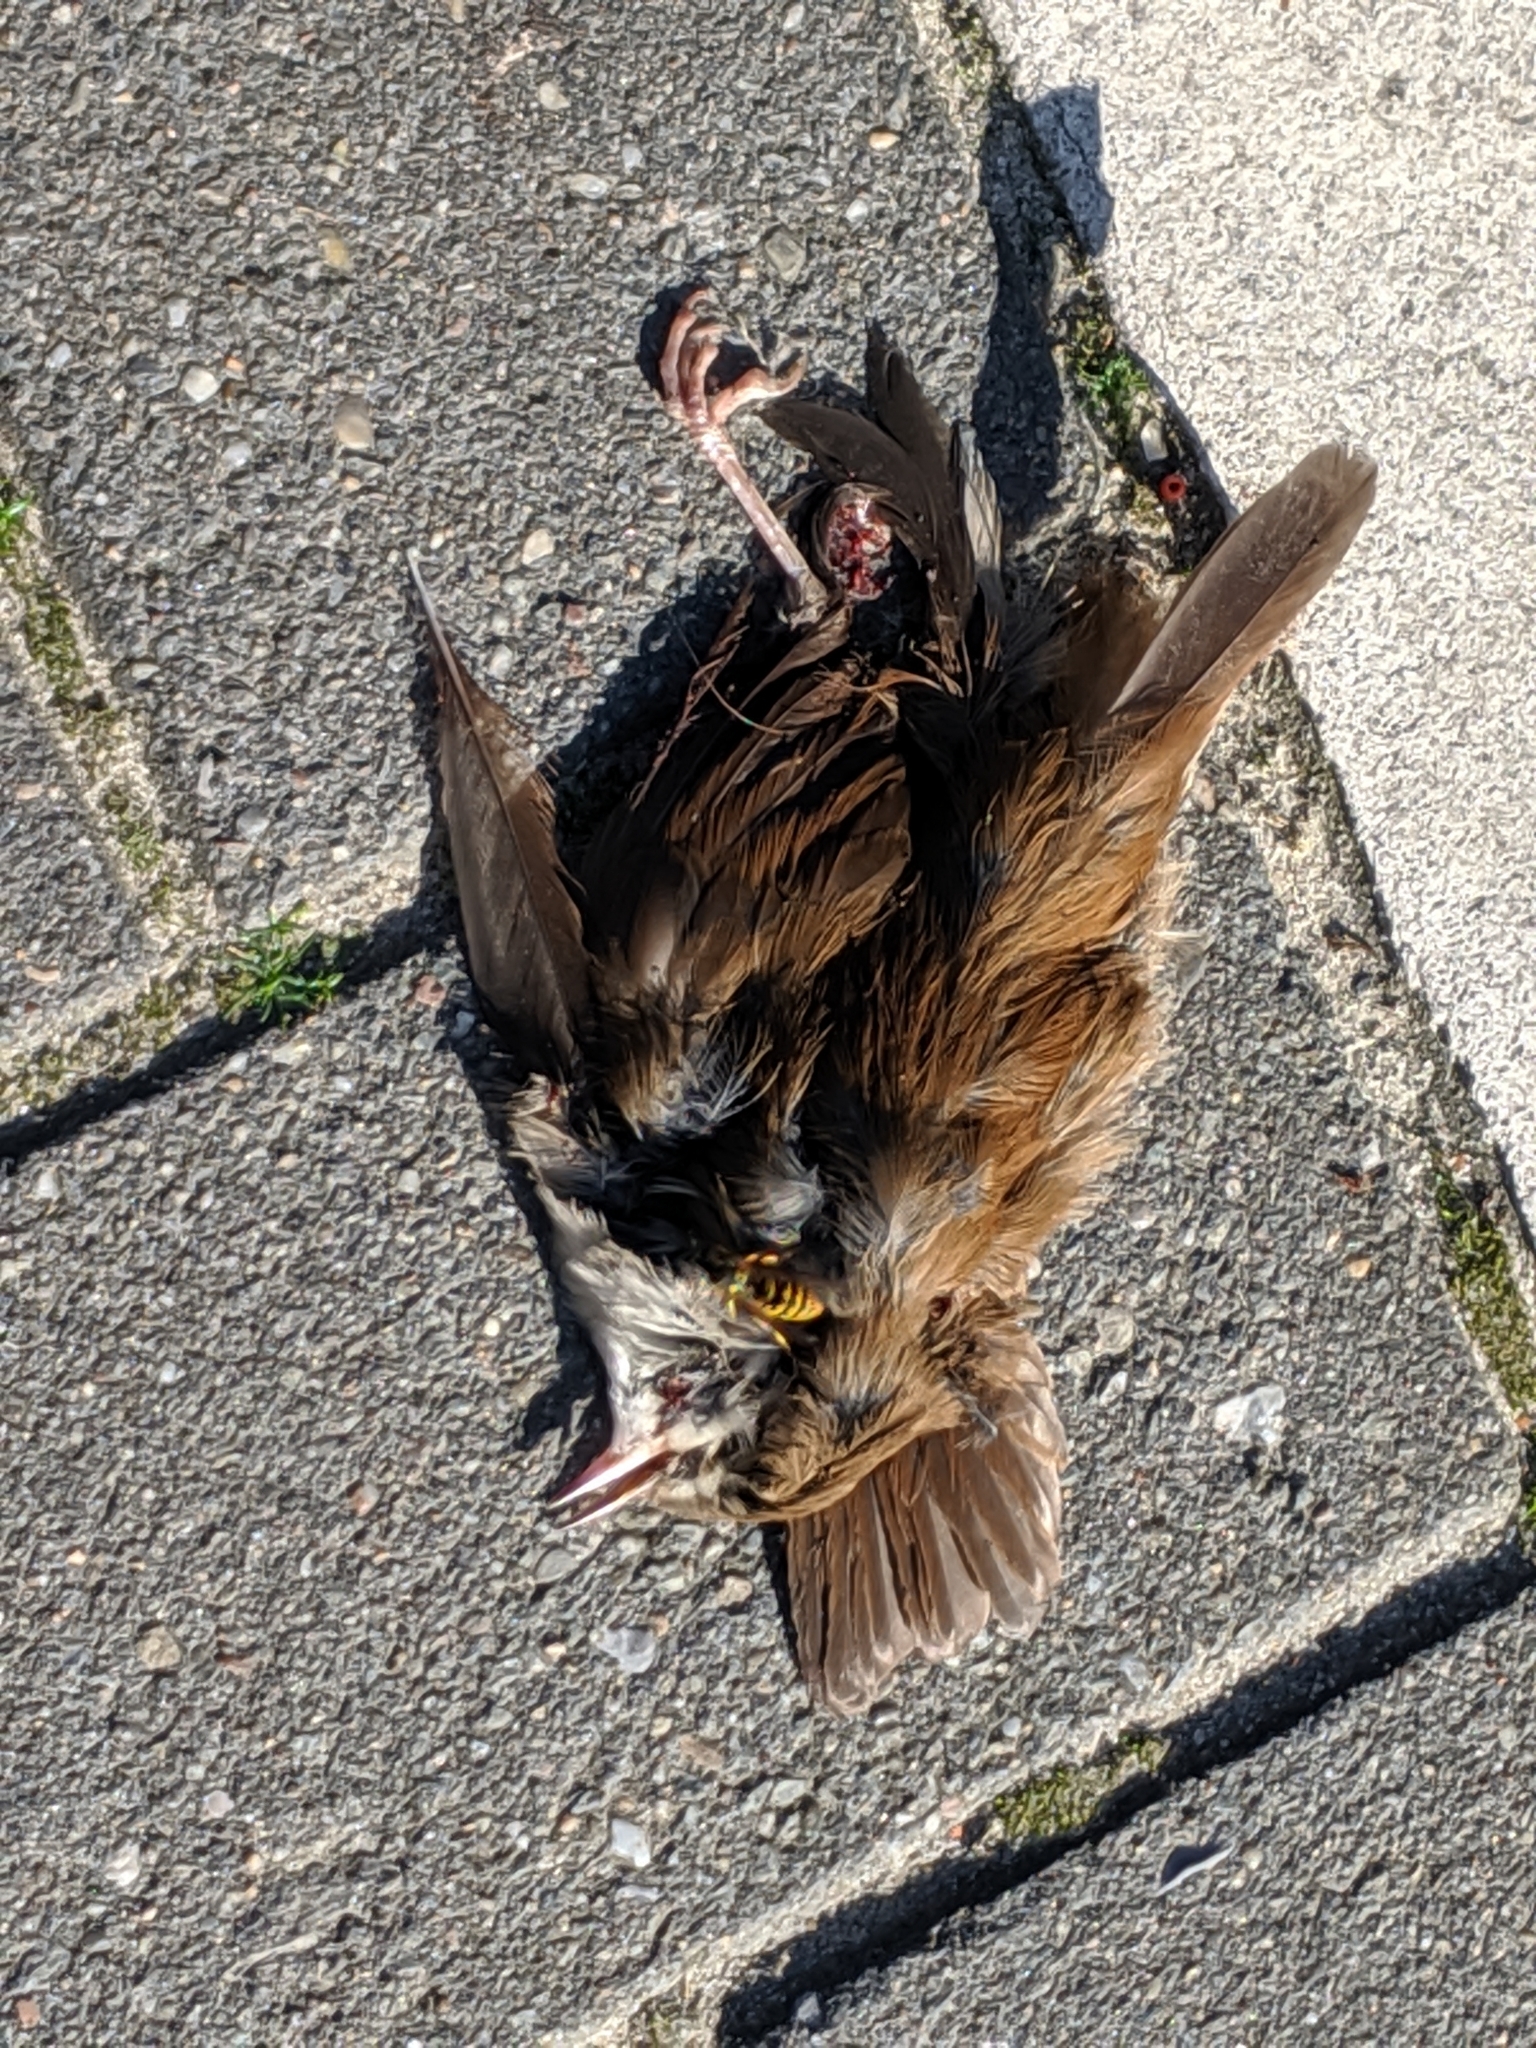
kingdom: Animalia
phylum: Chordata
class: Aves
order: Passeriformes
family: Cettiidae
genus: Cettia
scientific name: Cettia cetti
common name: Cetti's warbler
